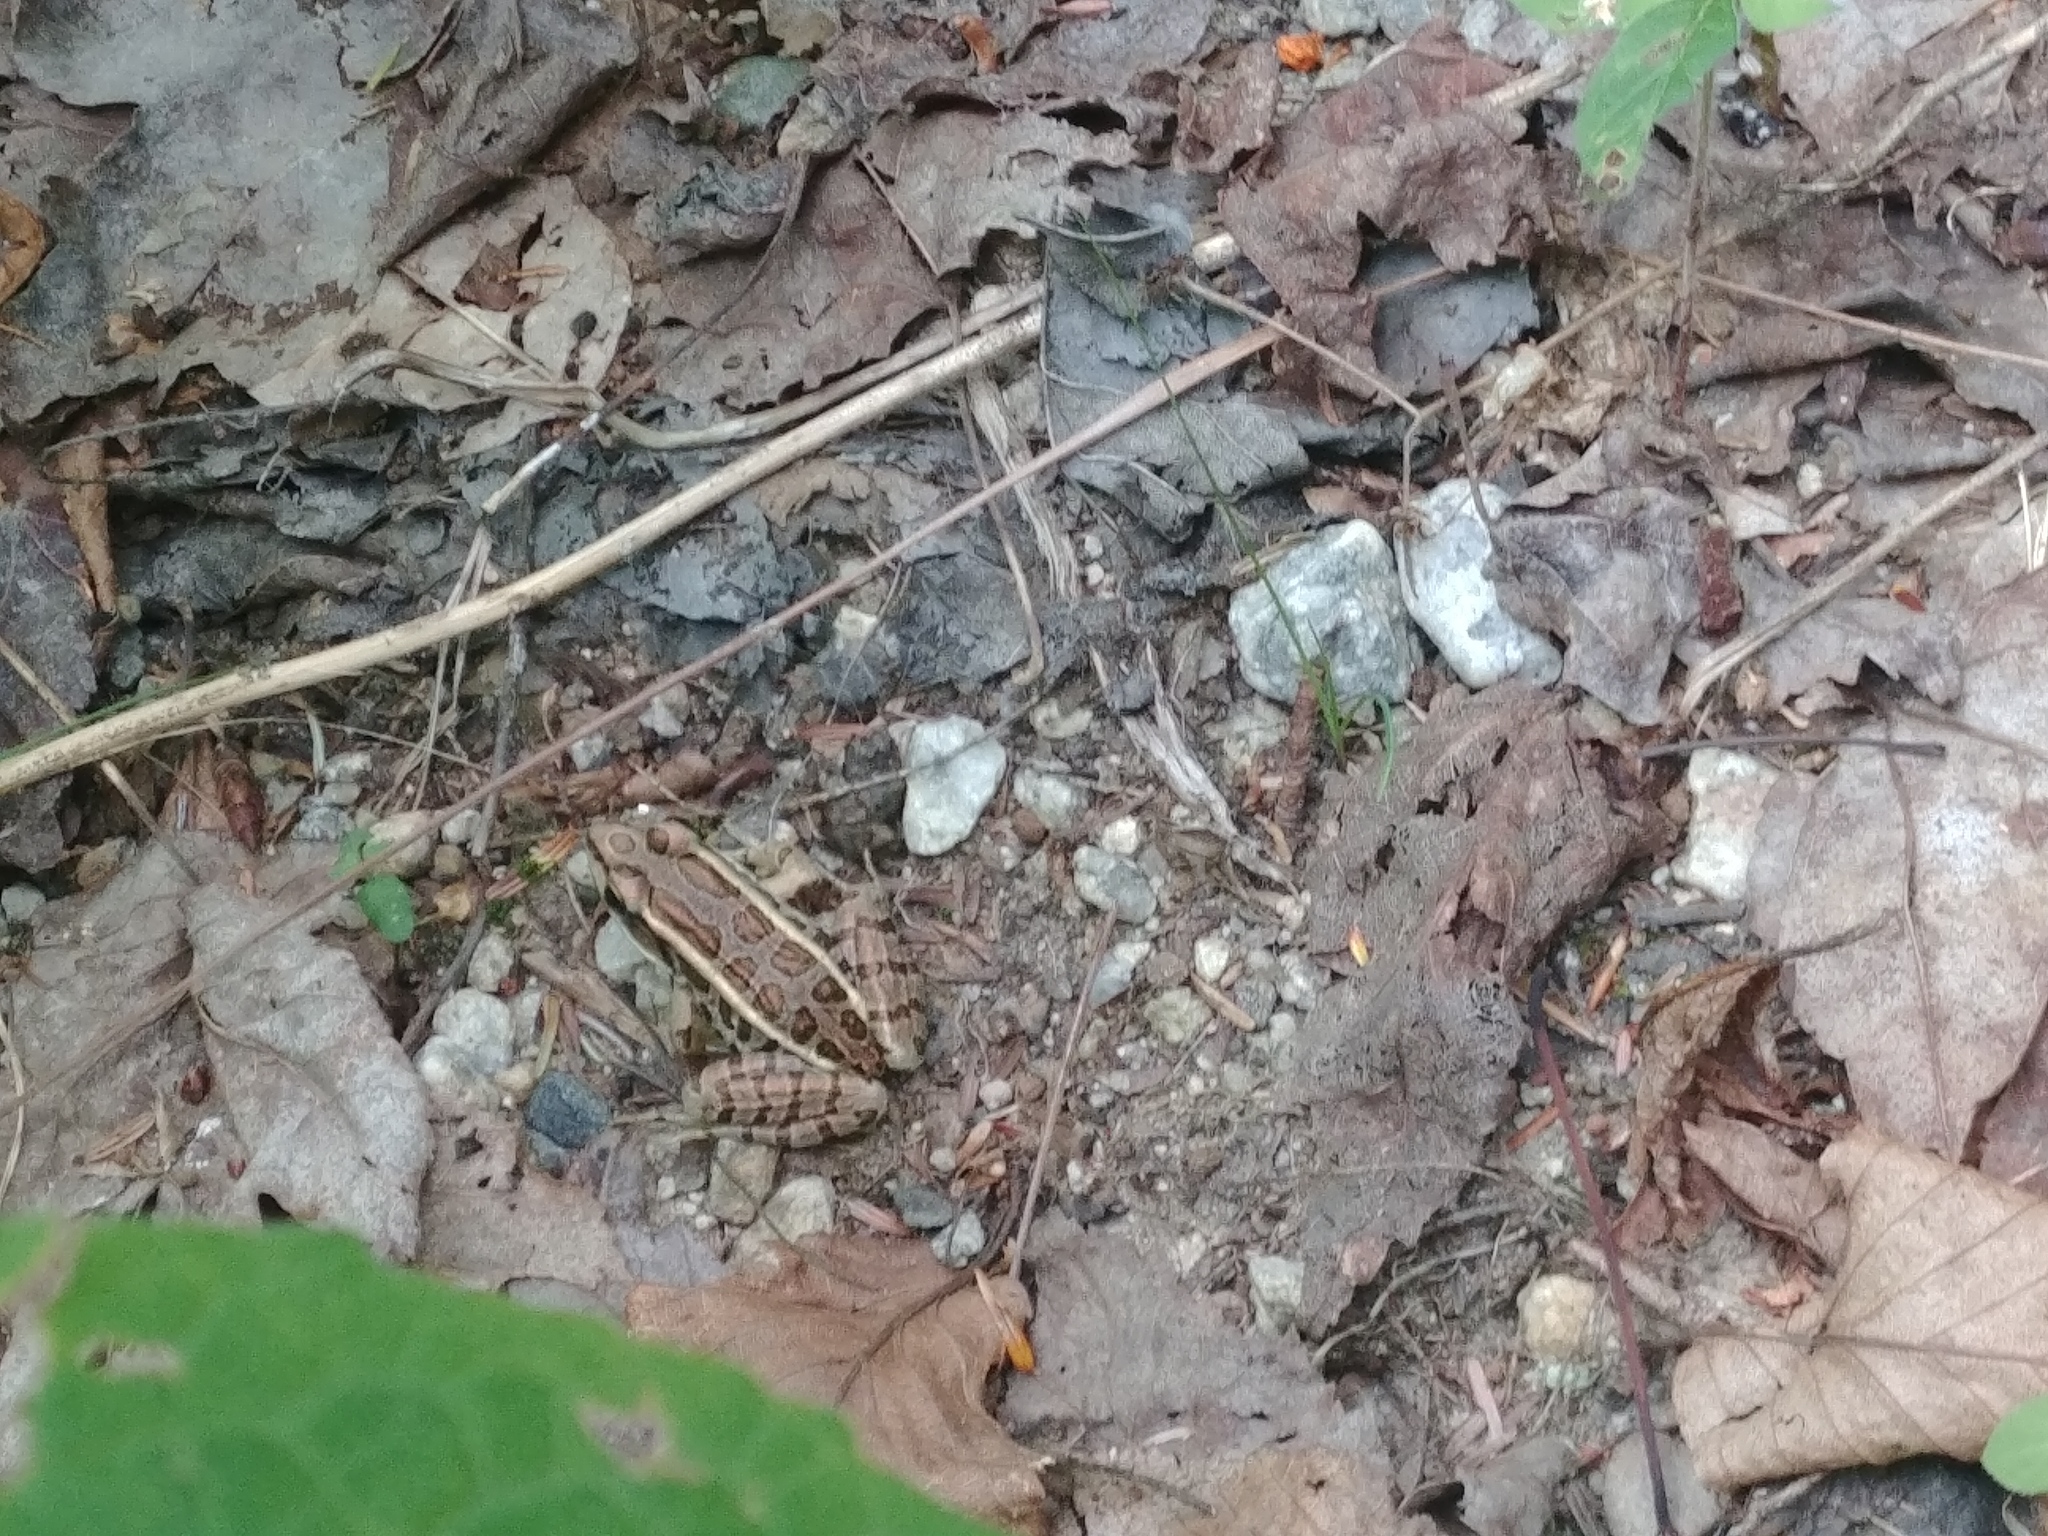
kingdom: Animalia
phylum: Chordata
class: Amphibia
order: Anura
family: Ranidae
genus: Lithobates
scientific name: Lithobates palustris
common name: Pickerel frog
